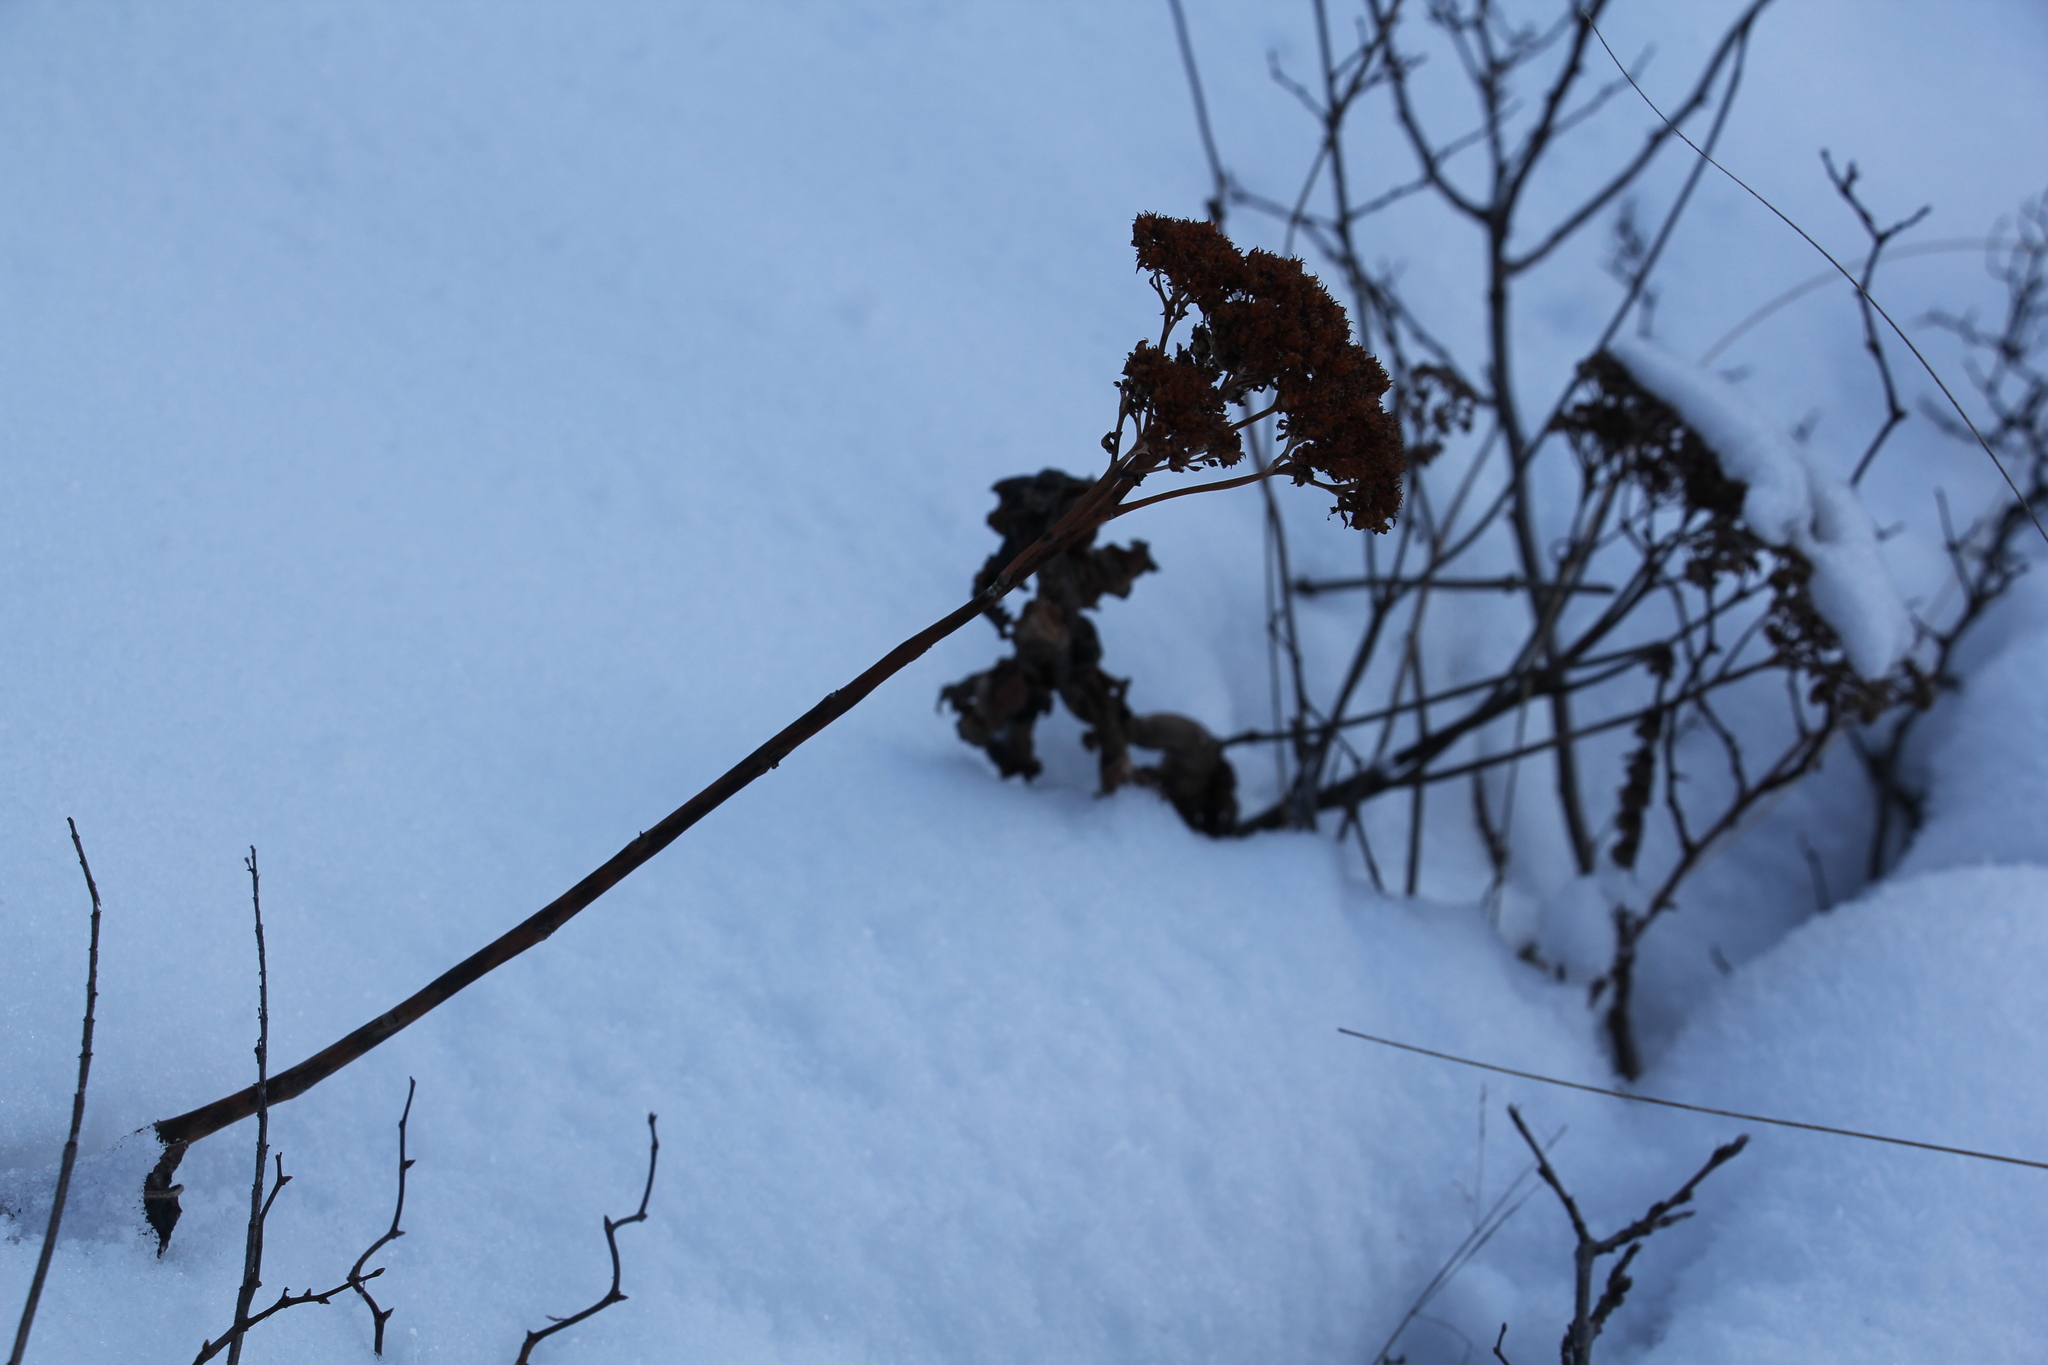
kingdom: Plantae
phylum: Tracheophyta
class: Magnoliopsida
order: Saxifragales
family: Crassulaceae
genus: Hylotelephium
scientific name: Hylotelephium telephium
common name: Live-forever
